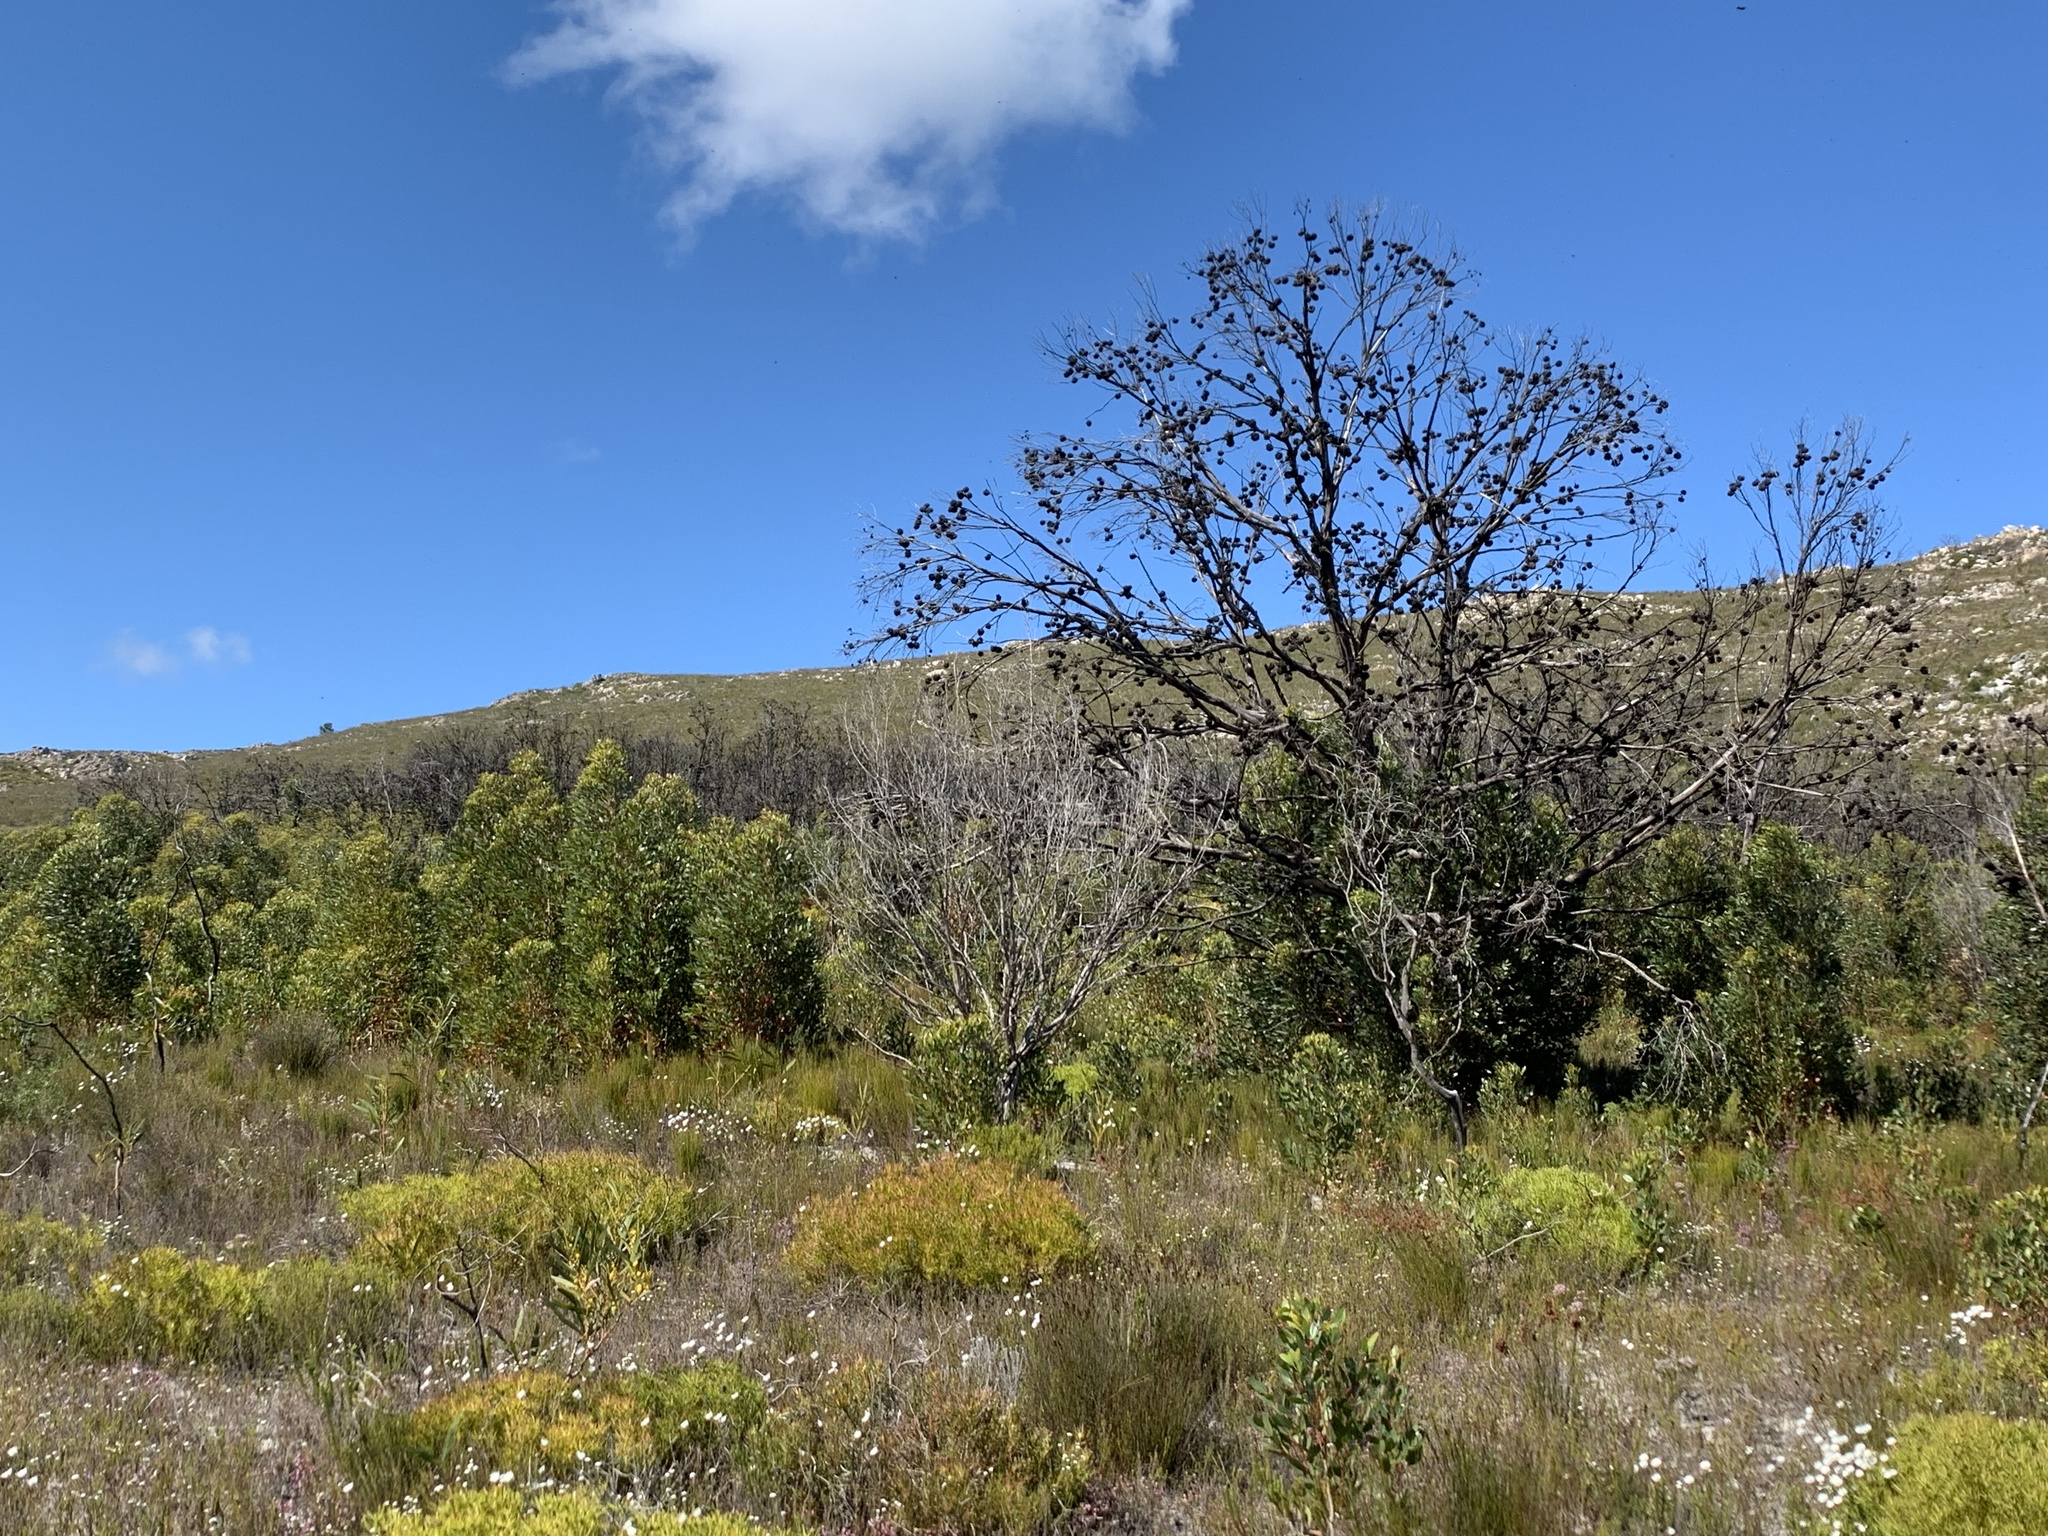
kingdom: Plantae
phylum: Tracheophyta
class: Magnoliopsida
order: Myrtales
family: Myrtaceae
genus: Eucalyptus
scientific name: Eucalyptus conferruminata
